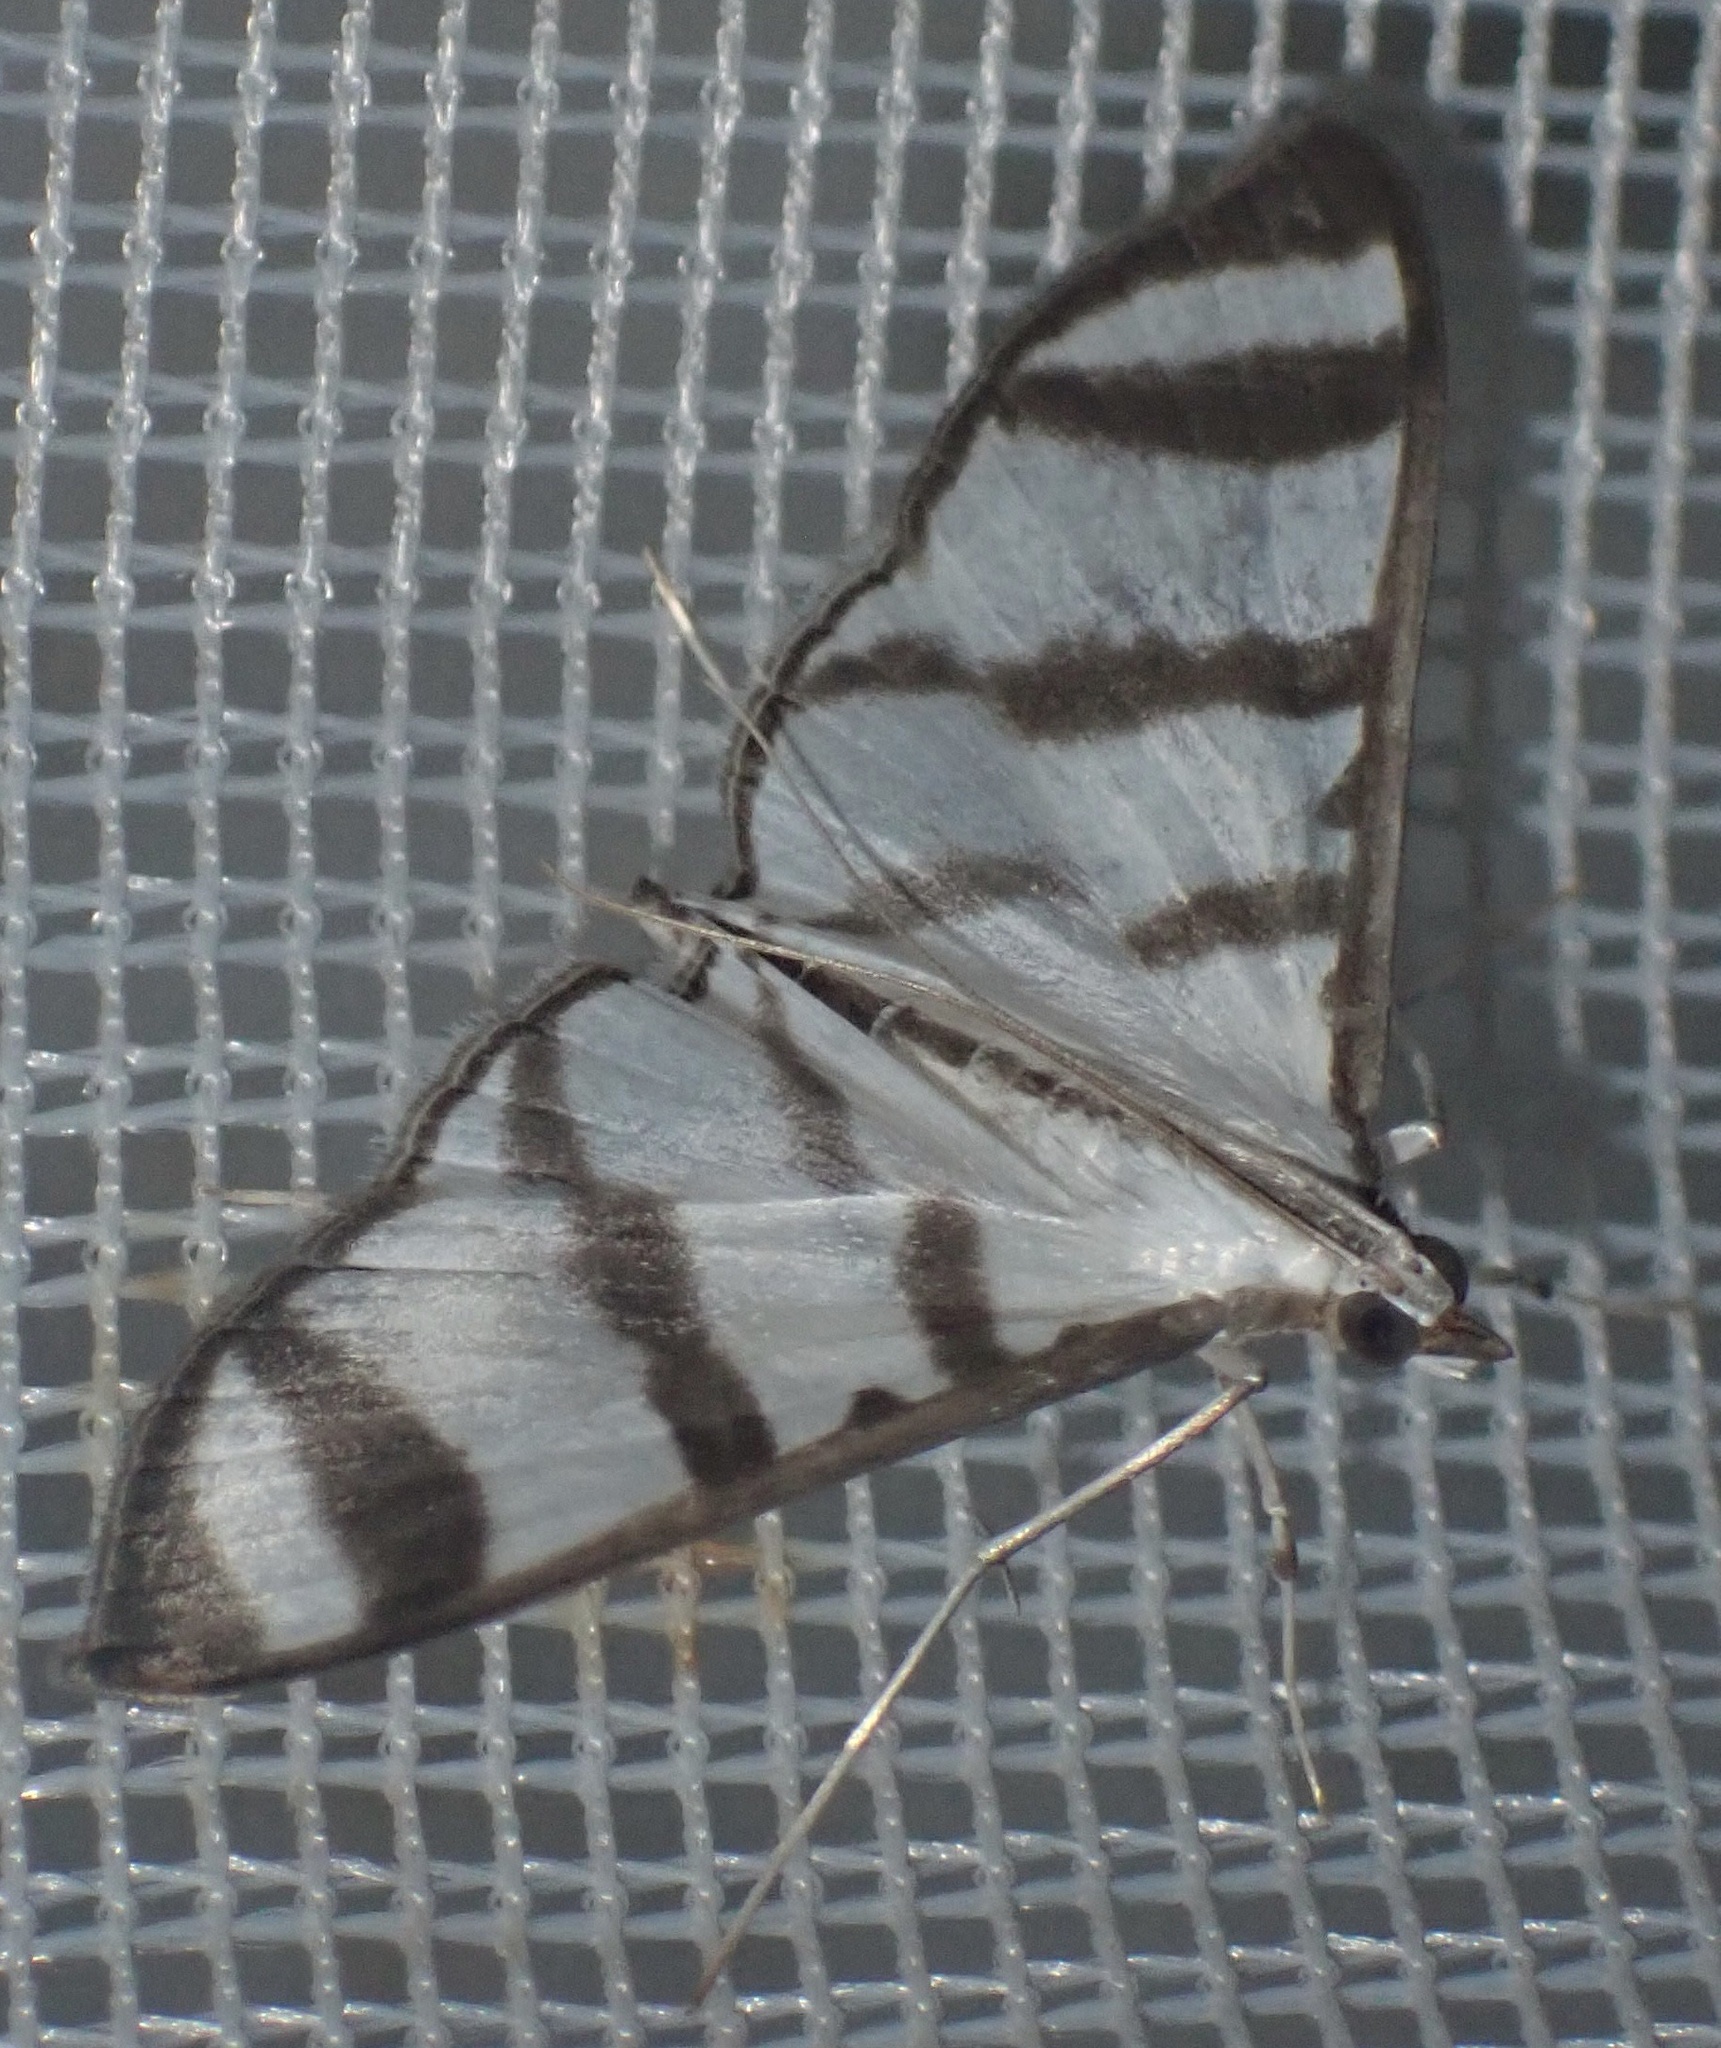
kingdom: Animalia
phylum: Arthropoda
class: Insecta
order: Lepidoptera
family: Crambidae
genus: Zebronia
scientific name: Zebronia phenice
